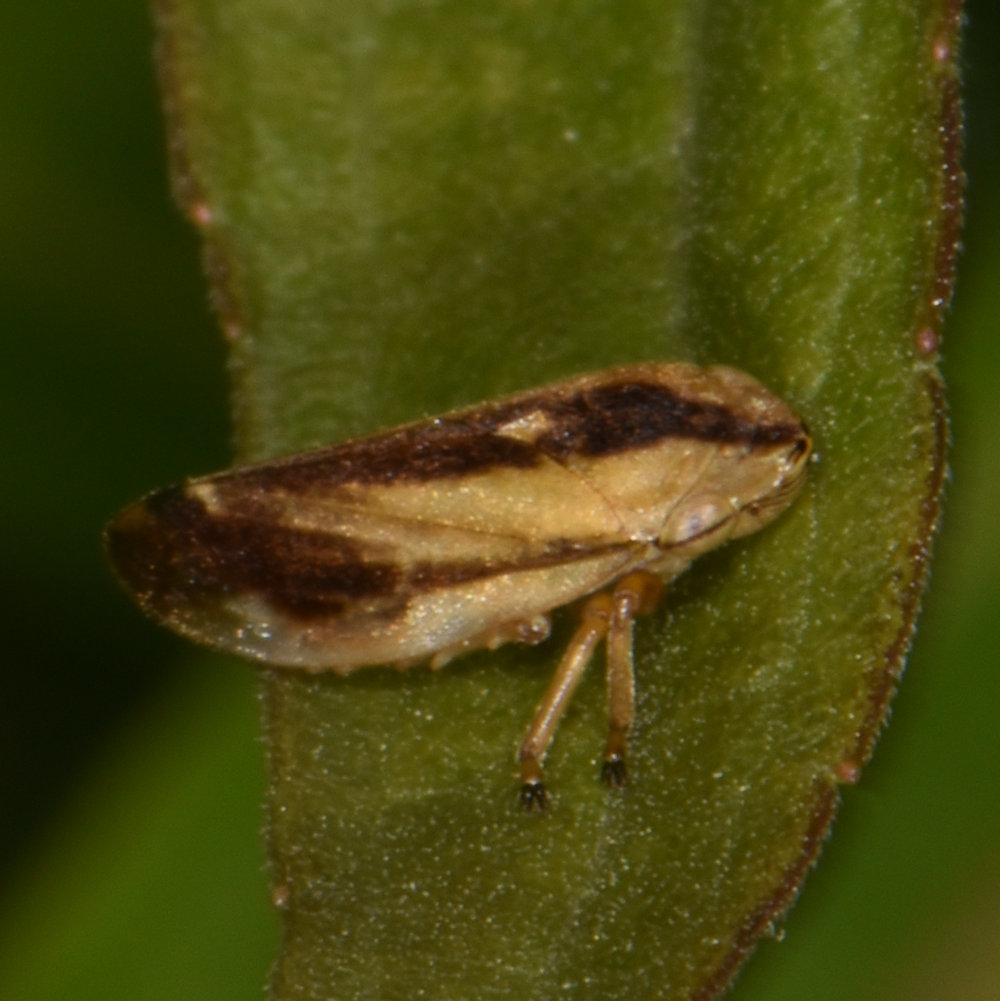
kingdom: Animalia
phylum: Arthropoda
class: Insecta
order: Hemiptera
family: Aphrophoridae
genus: Philaenus
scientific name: Philaenus spumarius
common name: Meadow spittlebug
